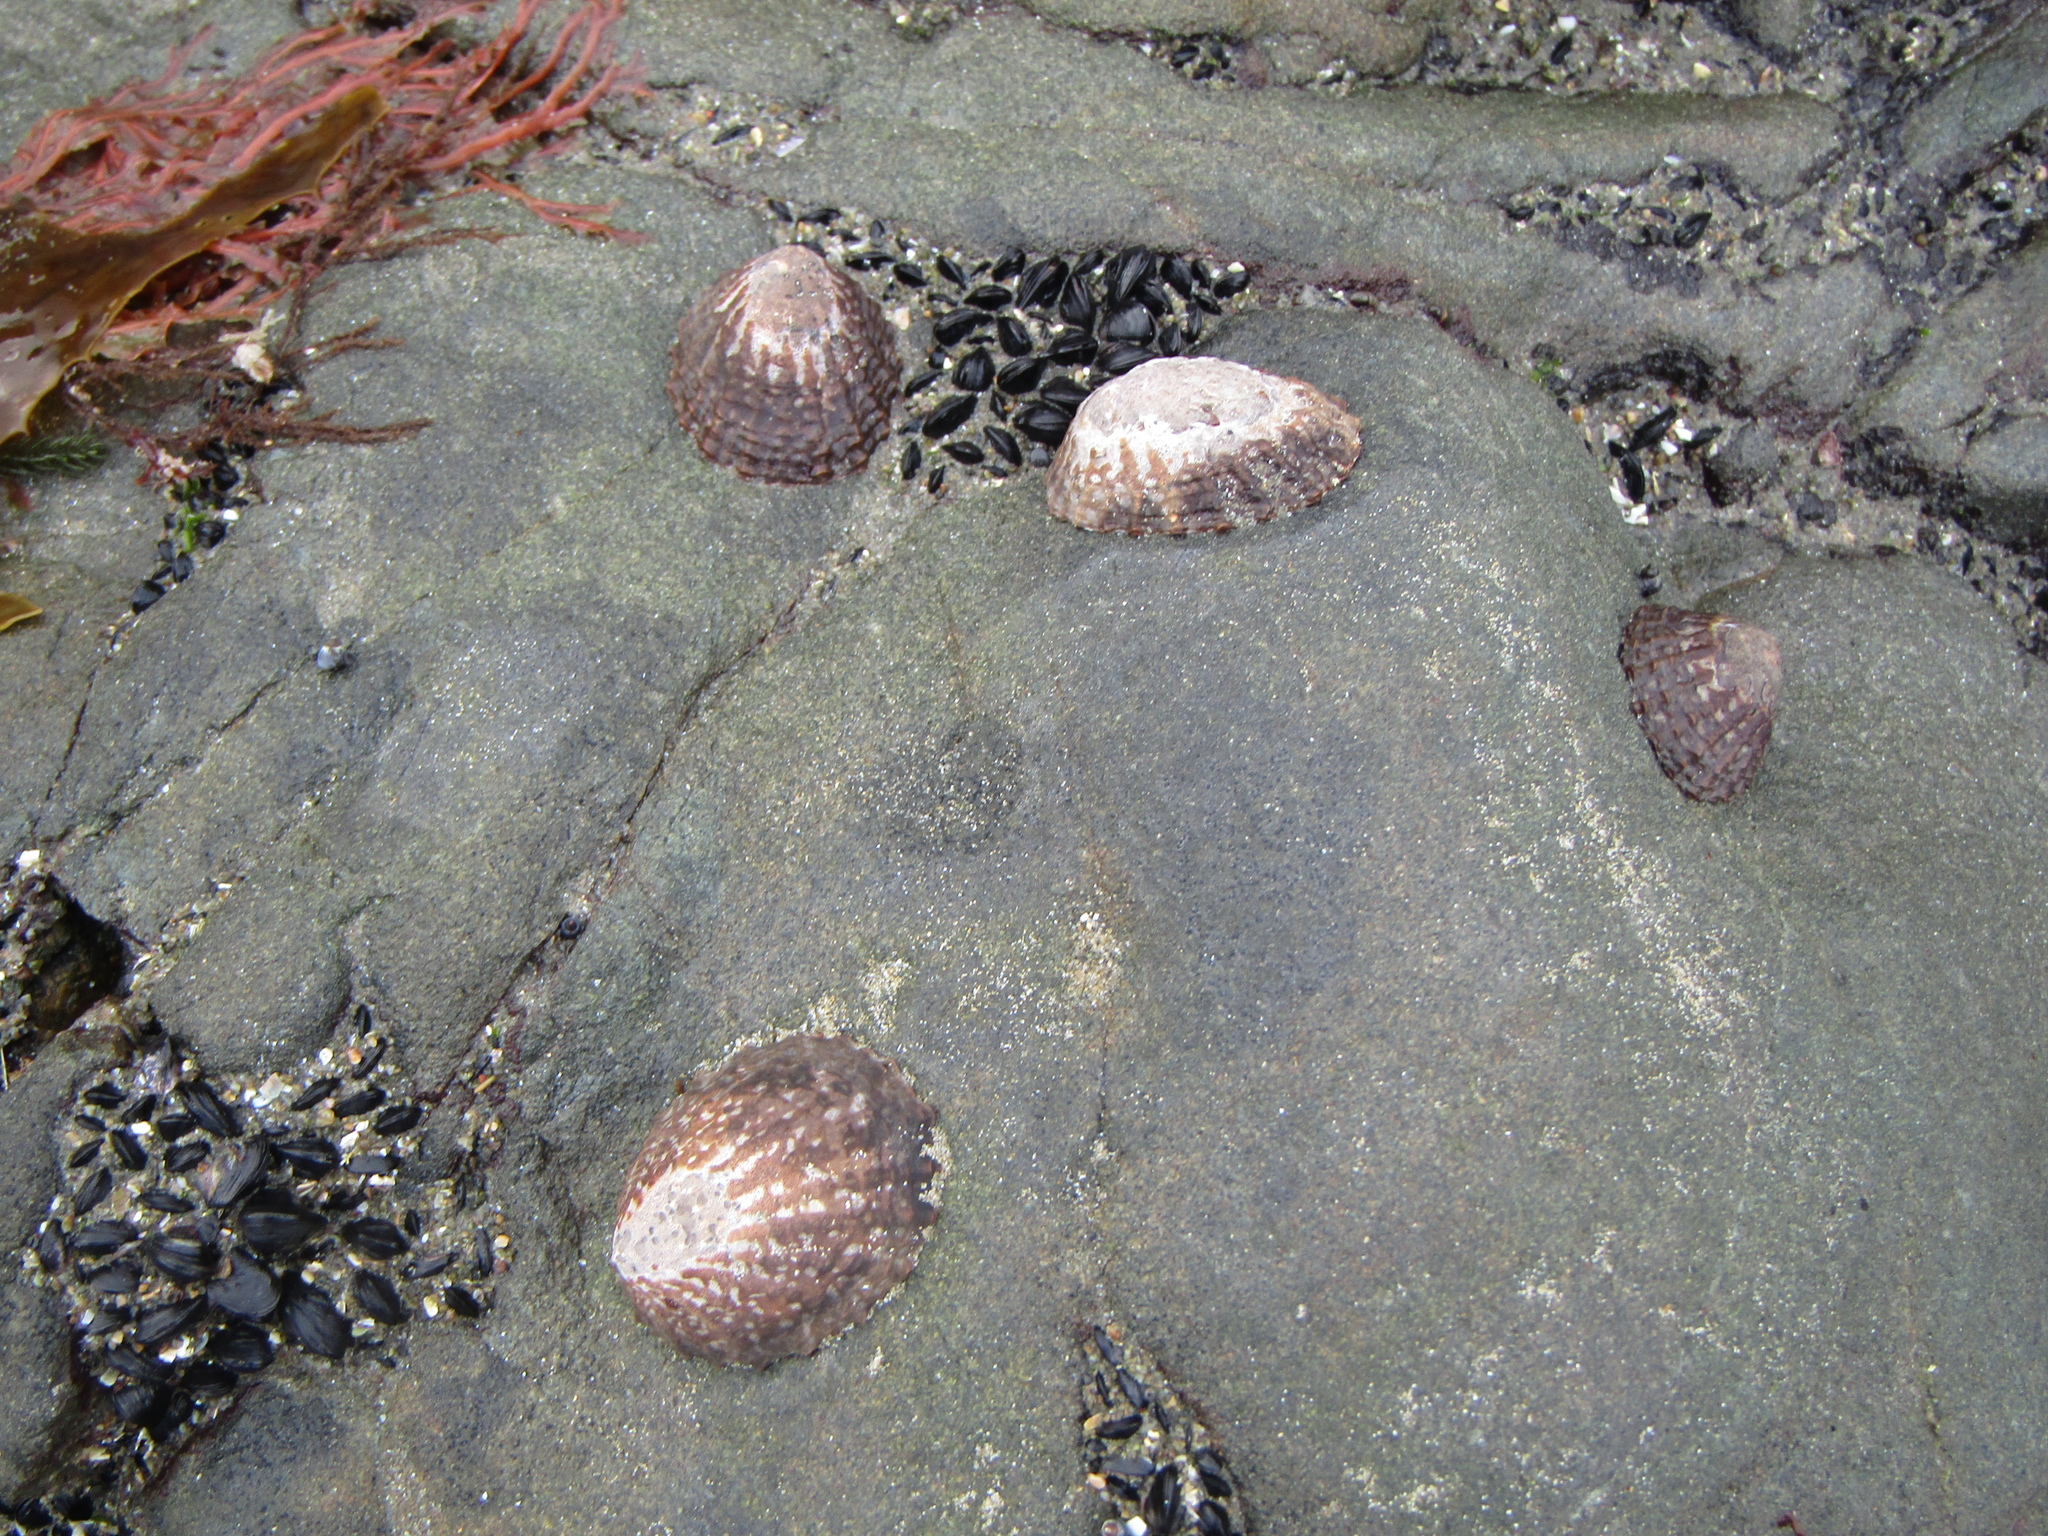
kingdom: Animalia
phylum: Mollusca
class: Gastropoda
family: Nacellidae
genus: Cellana
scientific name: Cellana denticulata
